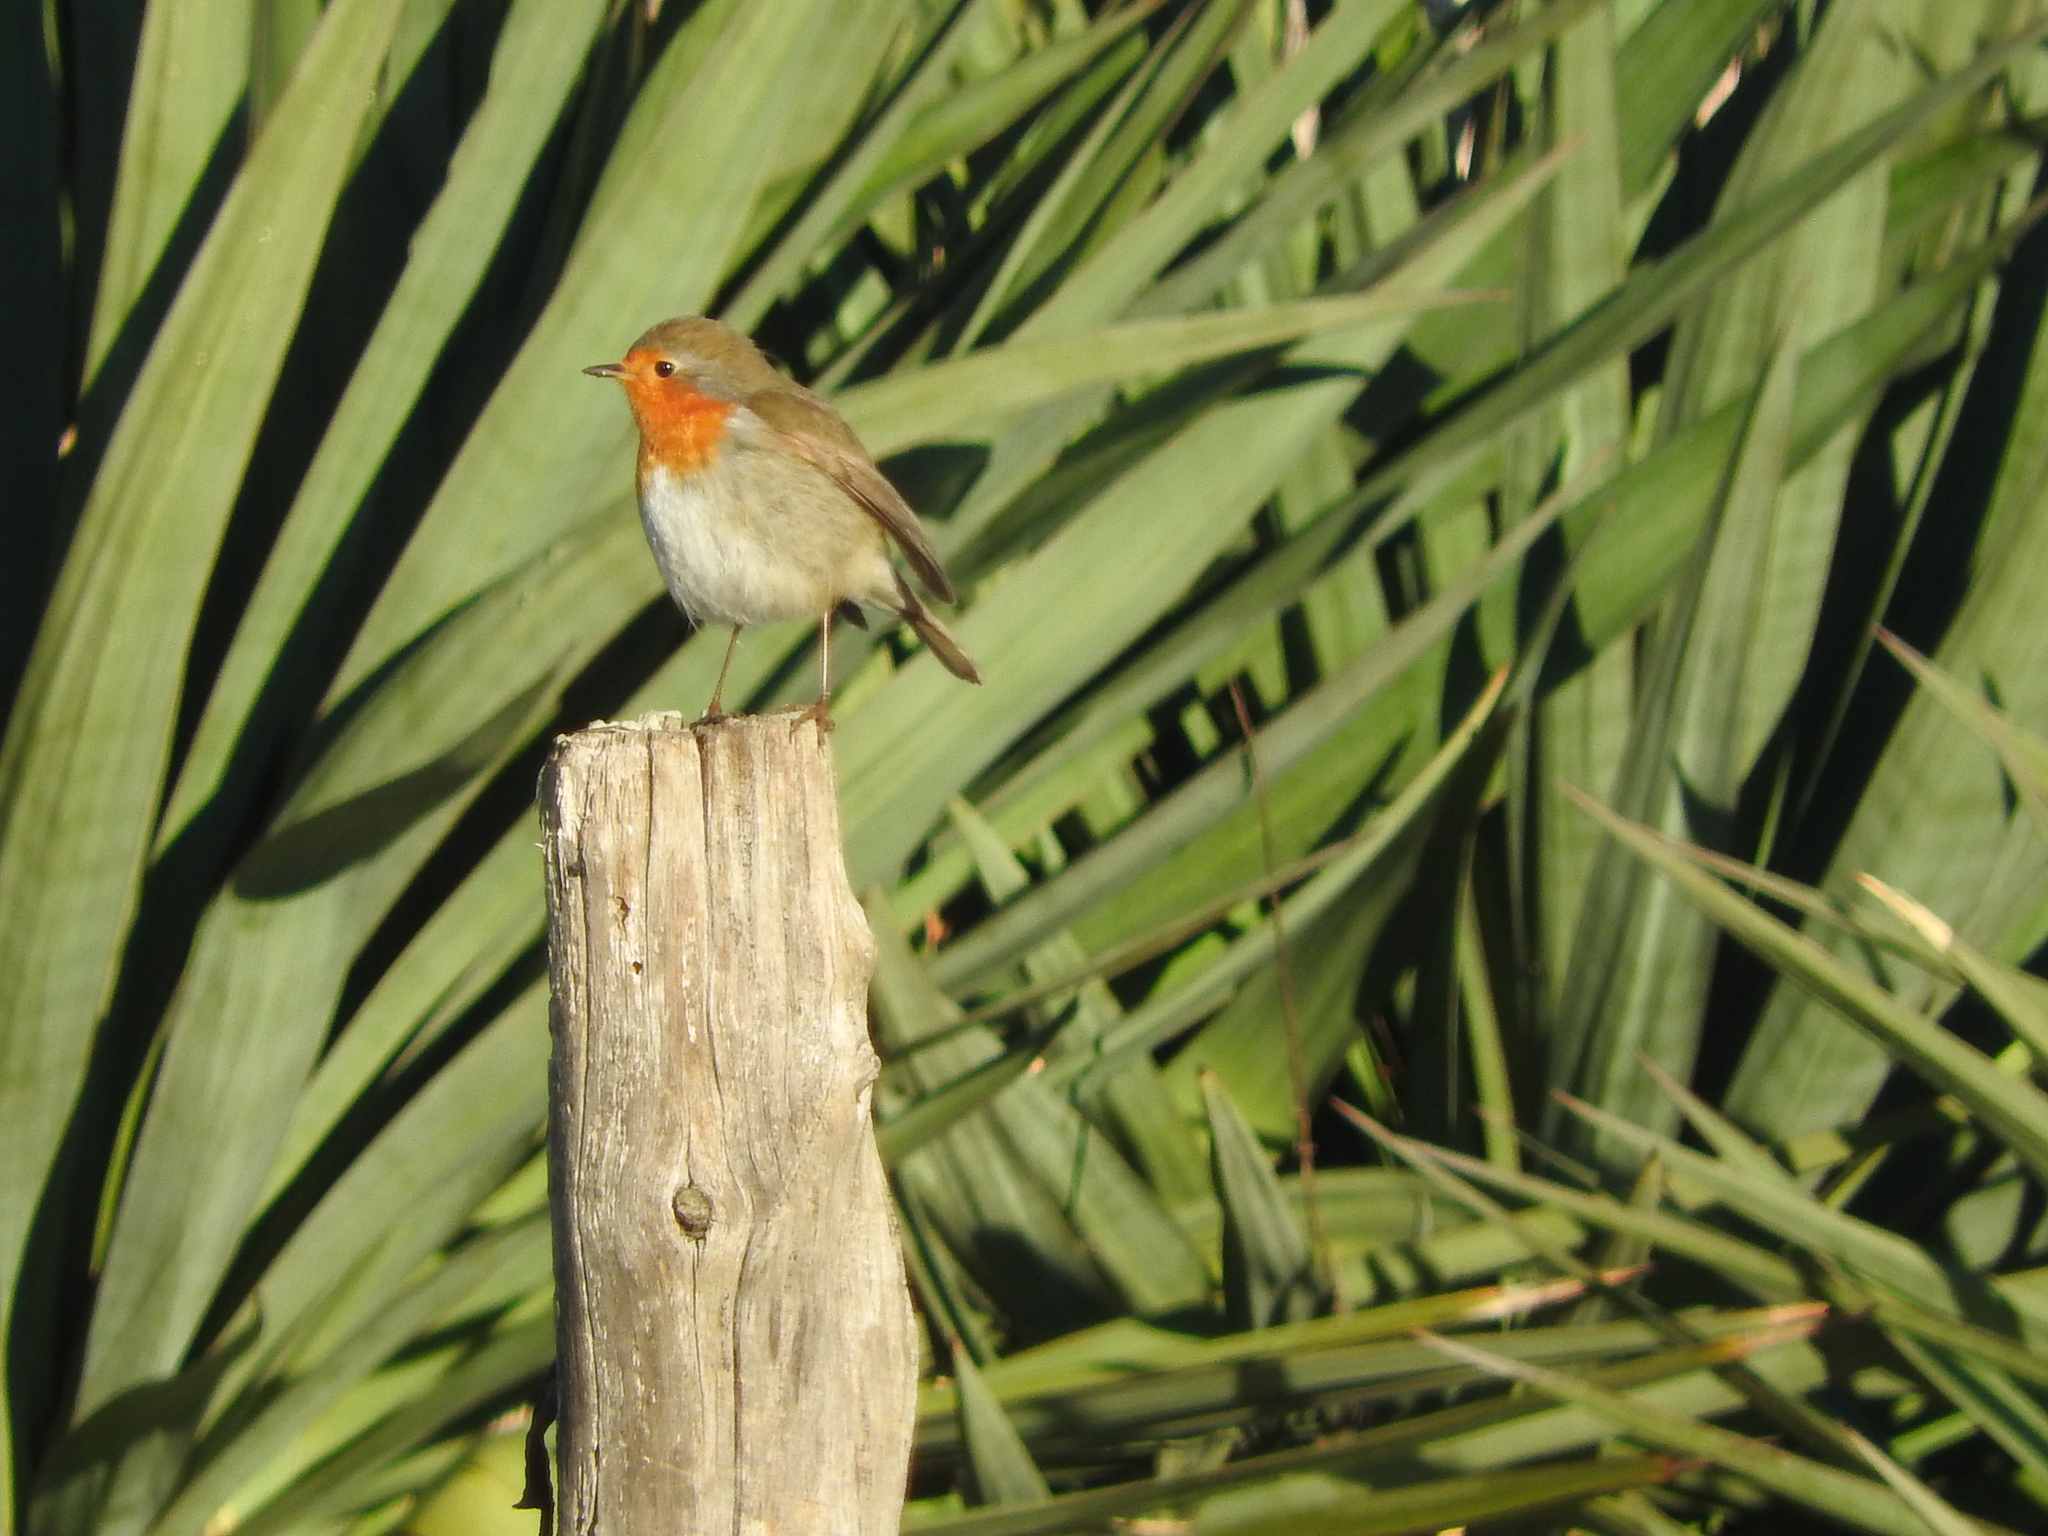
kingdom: Animalia
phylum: Chordata
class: Aves
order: Passeriformes
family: Muscicapidae
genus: Erithacus
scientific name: Erithacus rubecula
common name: European robin
